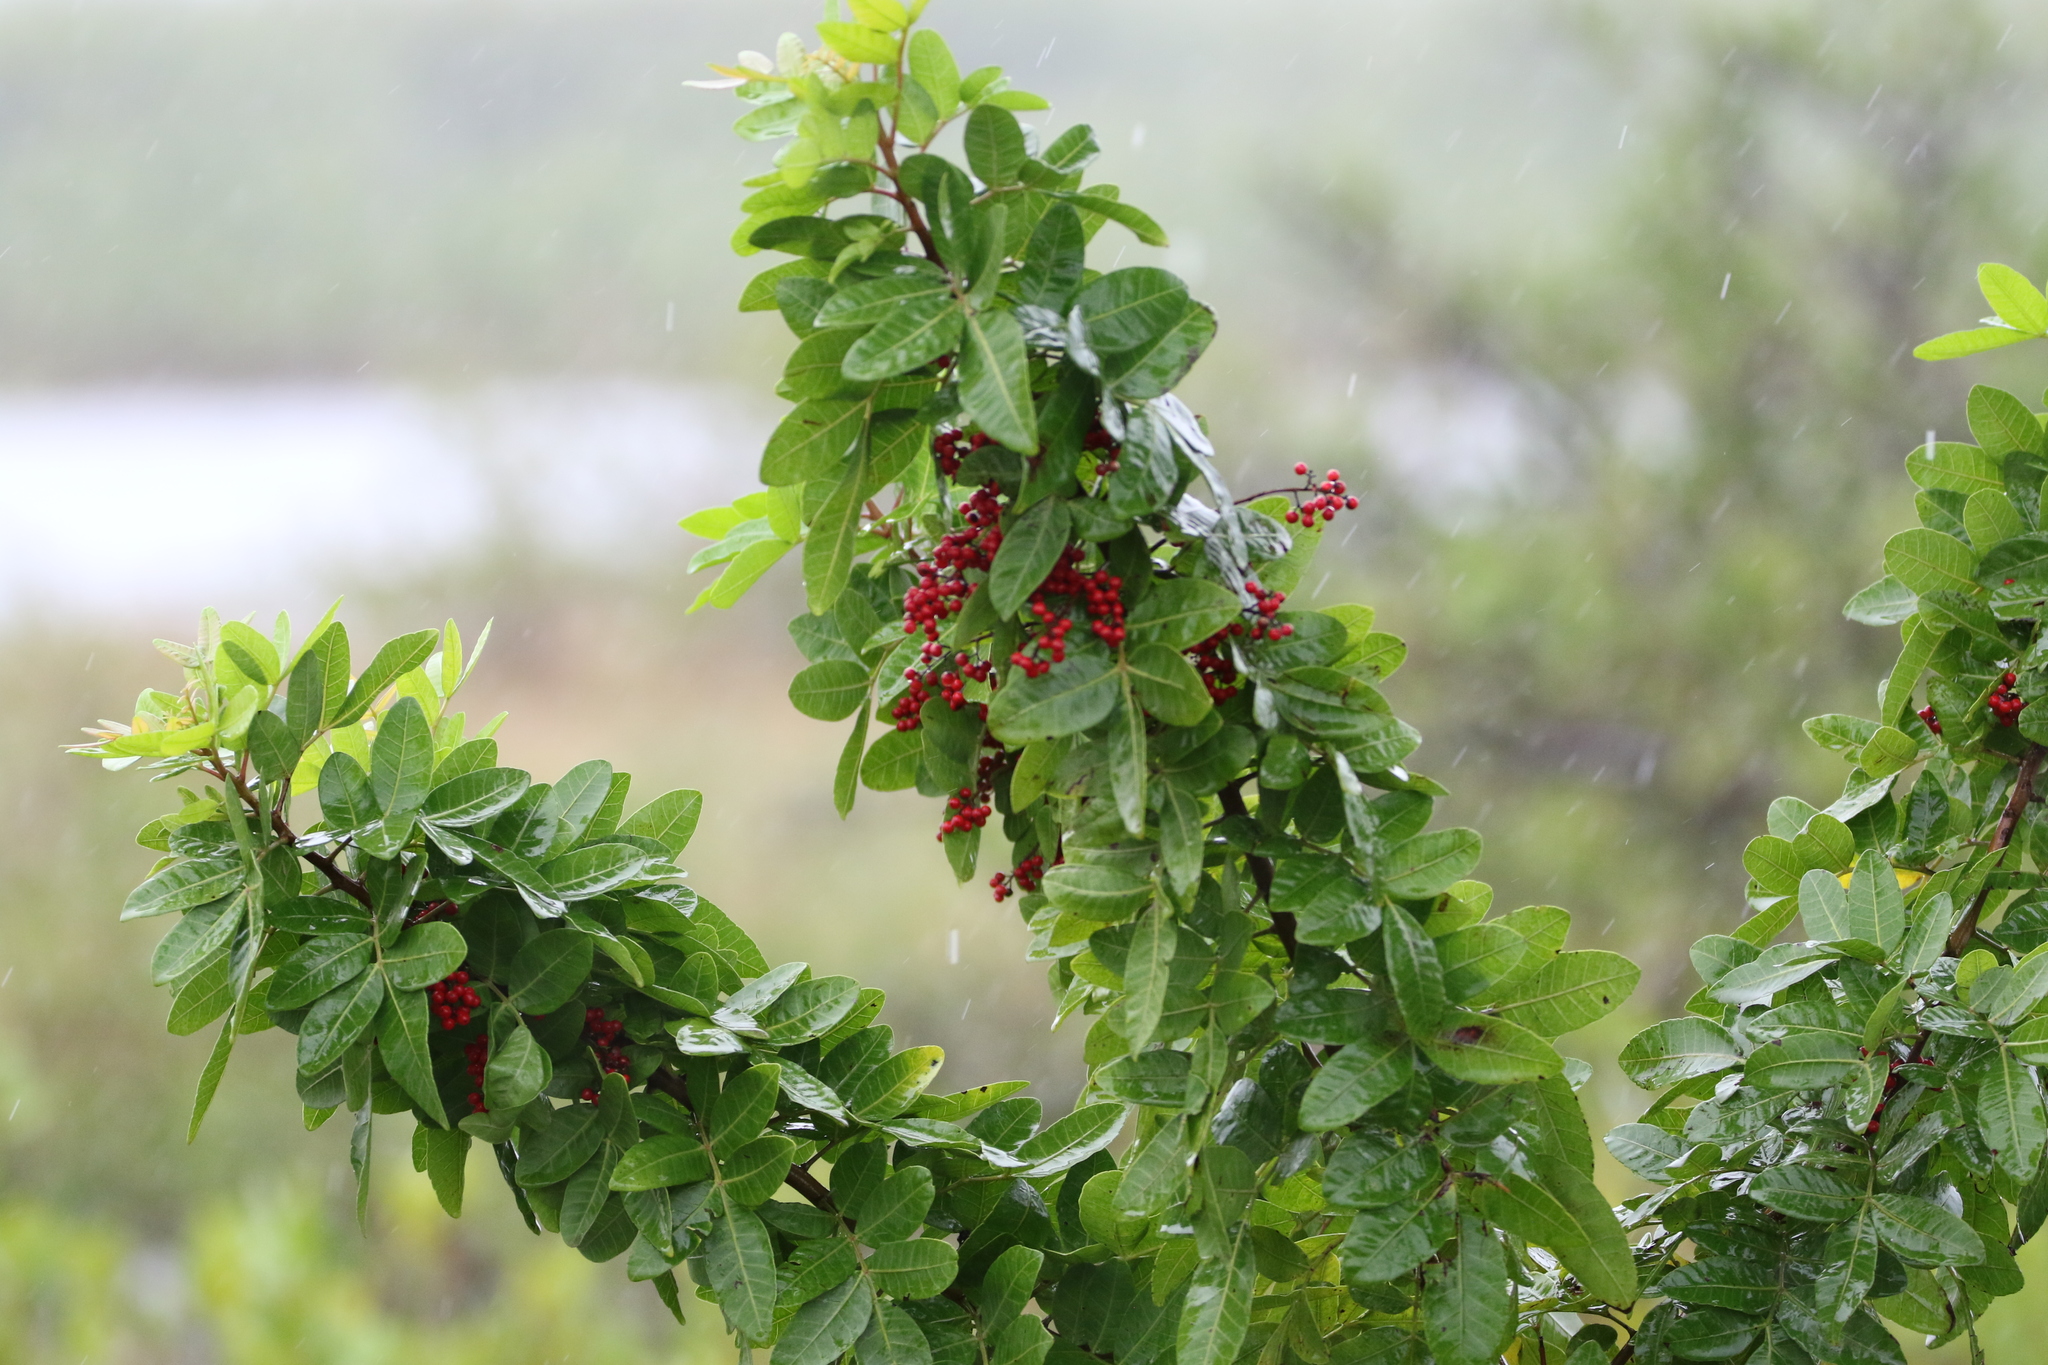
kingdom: Plantae
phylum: Tracheophyta
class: Magnoliopsida
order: Sapindales
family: Anacardiaceae
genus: Schinus
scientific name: Schinus terebinthifolia
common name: Brazilian peppertree
